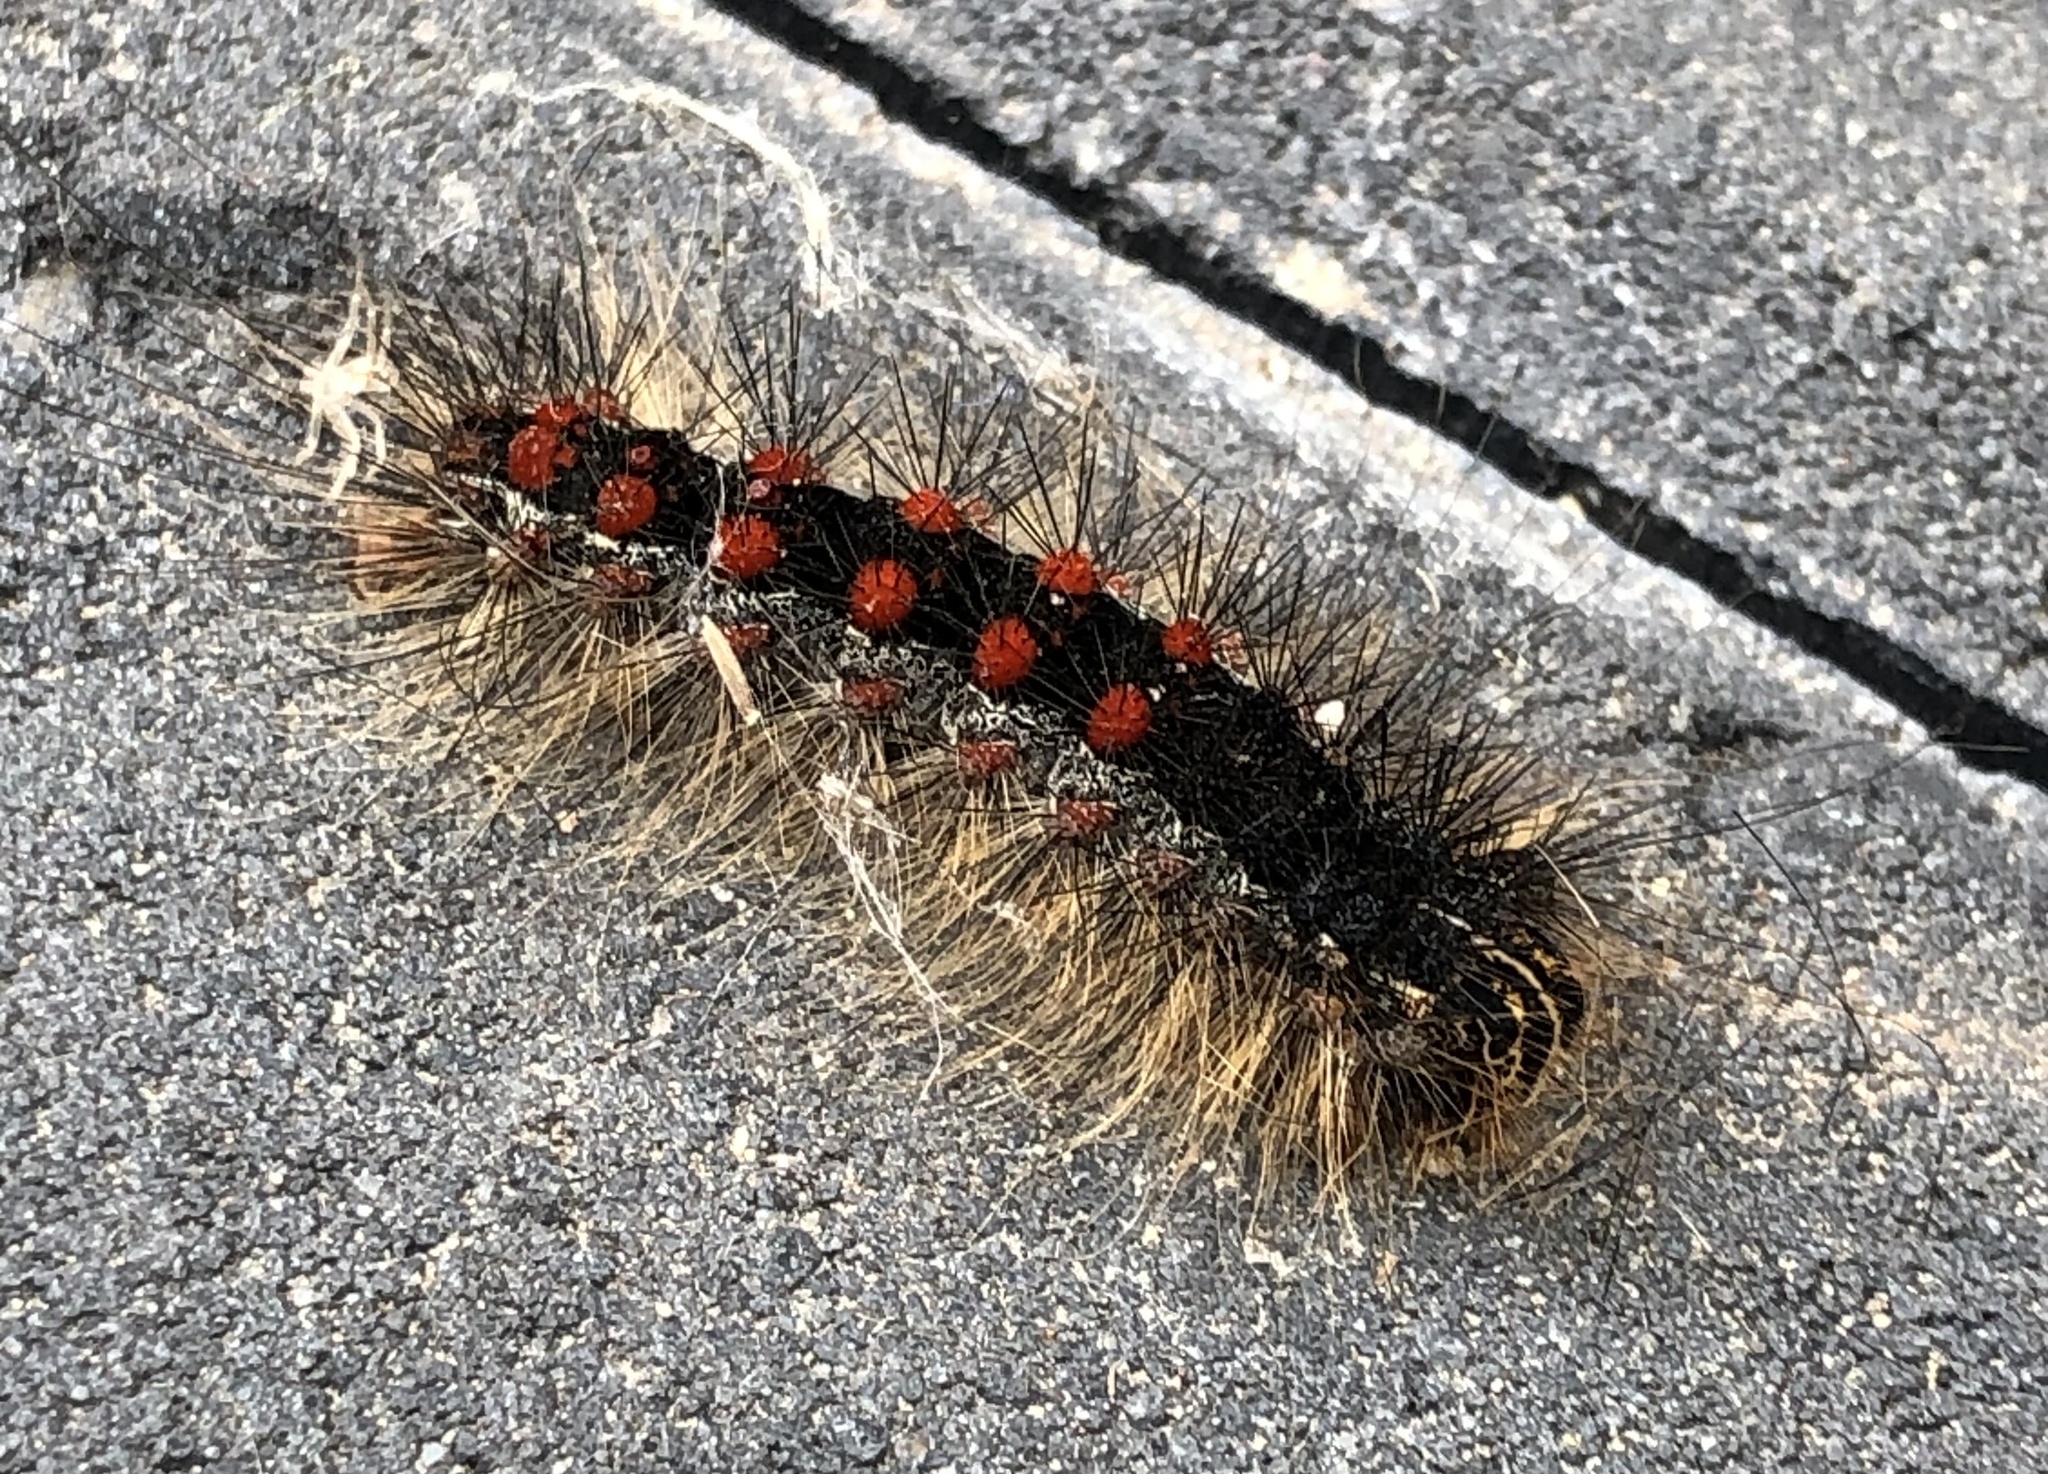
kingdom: Animalia
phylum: Arthropoda
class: Insecta
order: Lepidoptera
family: Erebidae
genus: Lymantria
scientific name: Lymantria dispar
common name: Gypsy moth
